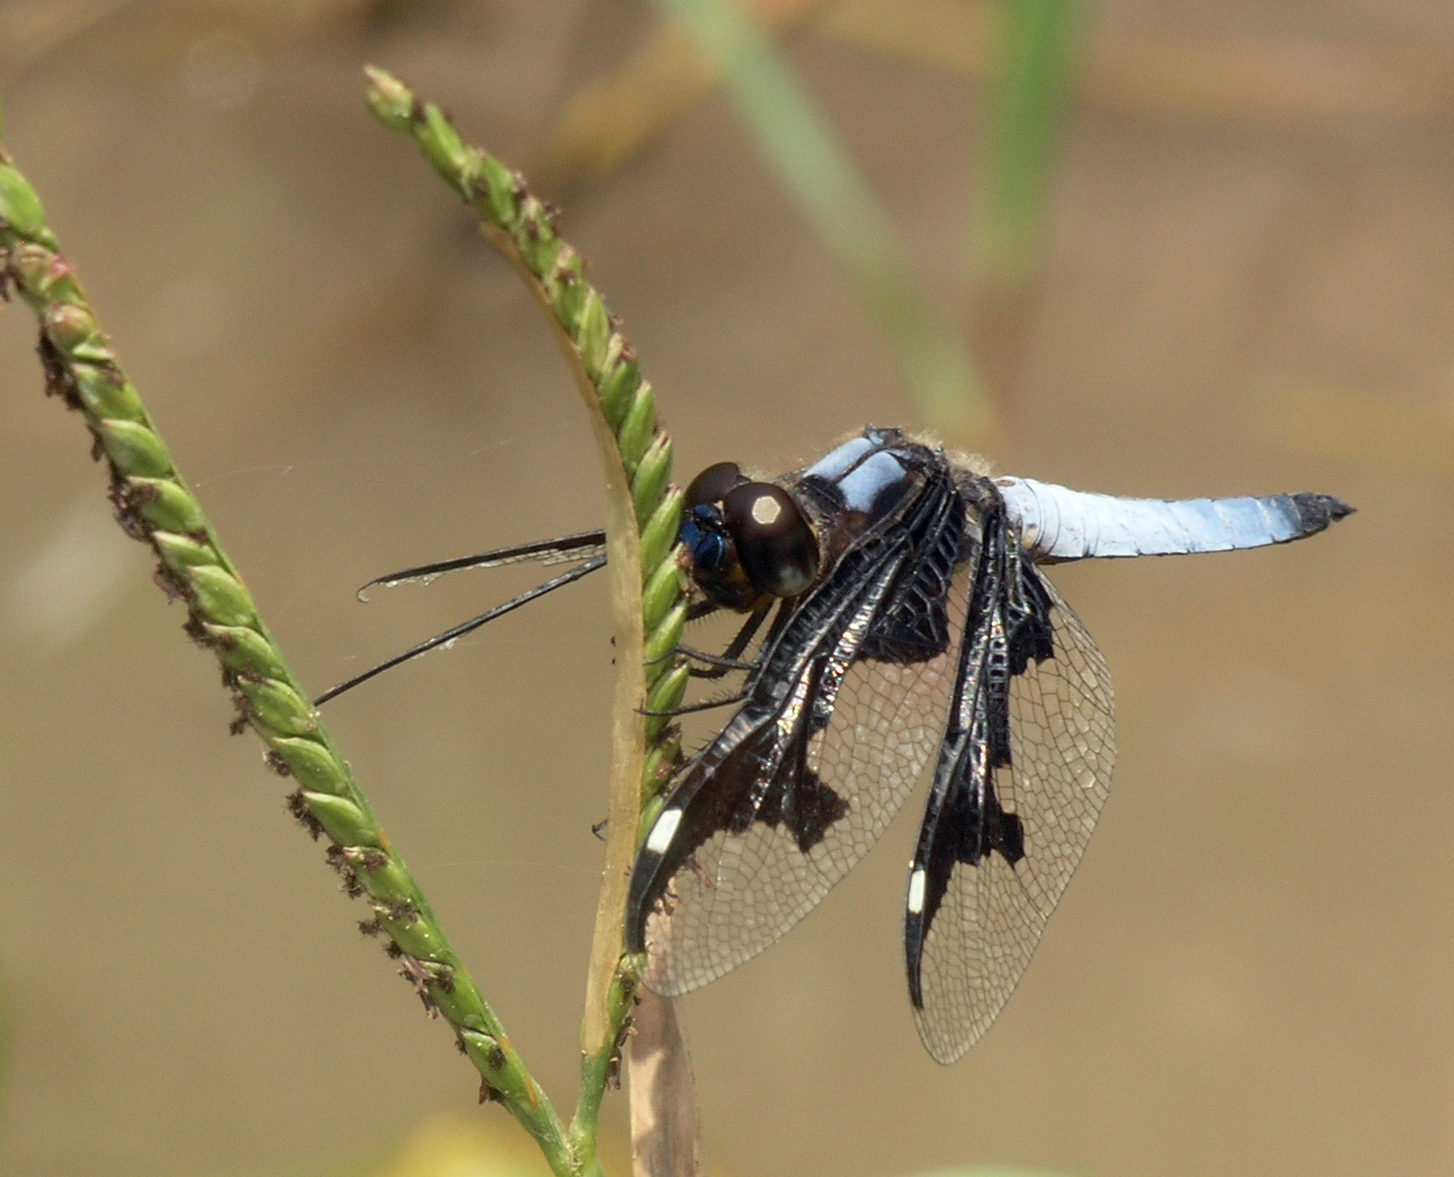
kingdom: Animalia
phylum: Arthropoda
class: Insecta
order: Odonata
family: Libellulidae
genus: Palpopleura
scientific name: Palpopleura portia
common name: Portia widow
